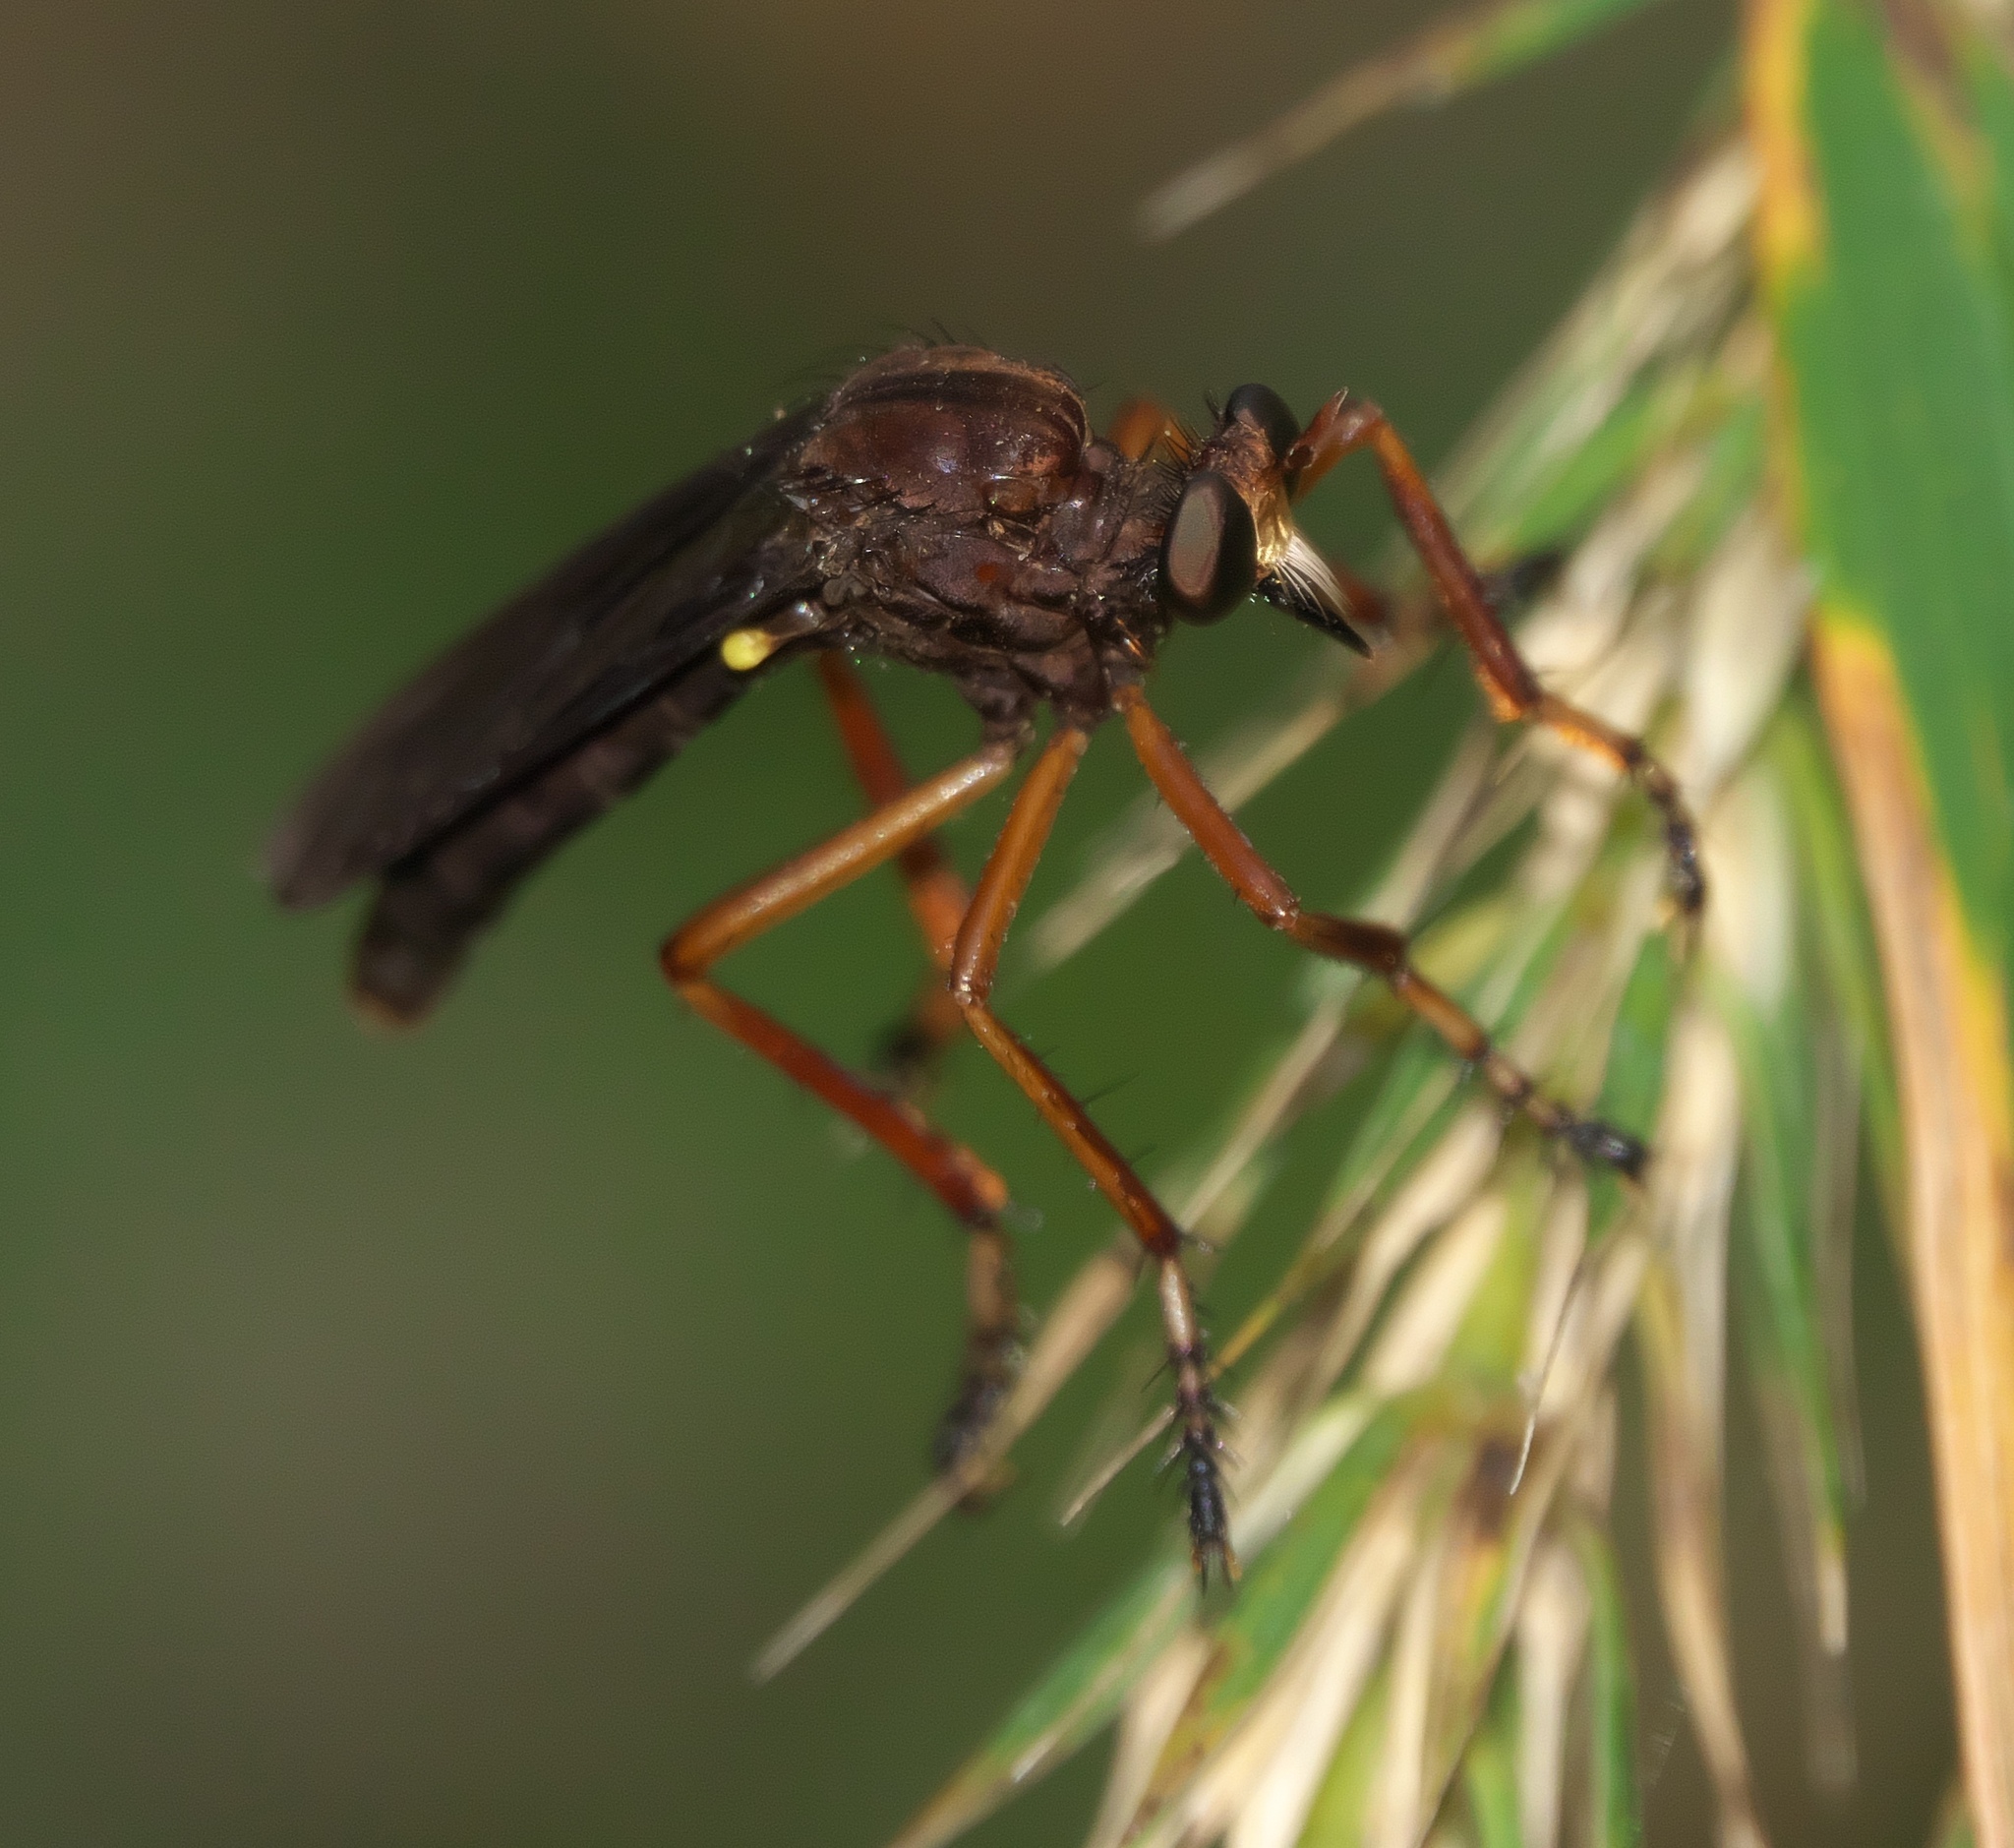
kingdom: Animalia
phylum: Arthropoda
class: Insecta
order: Diptera
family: Asilidae
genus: Diogmites
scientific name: Diogmites platypterus
